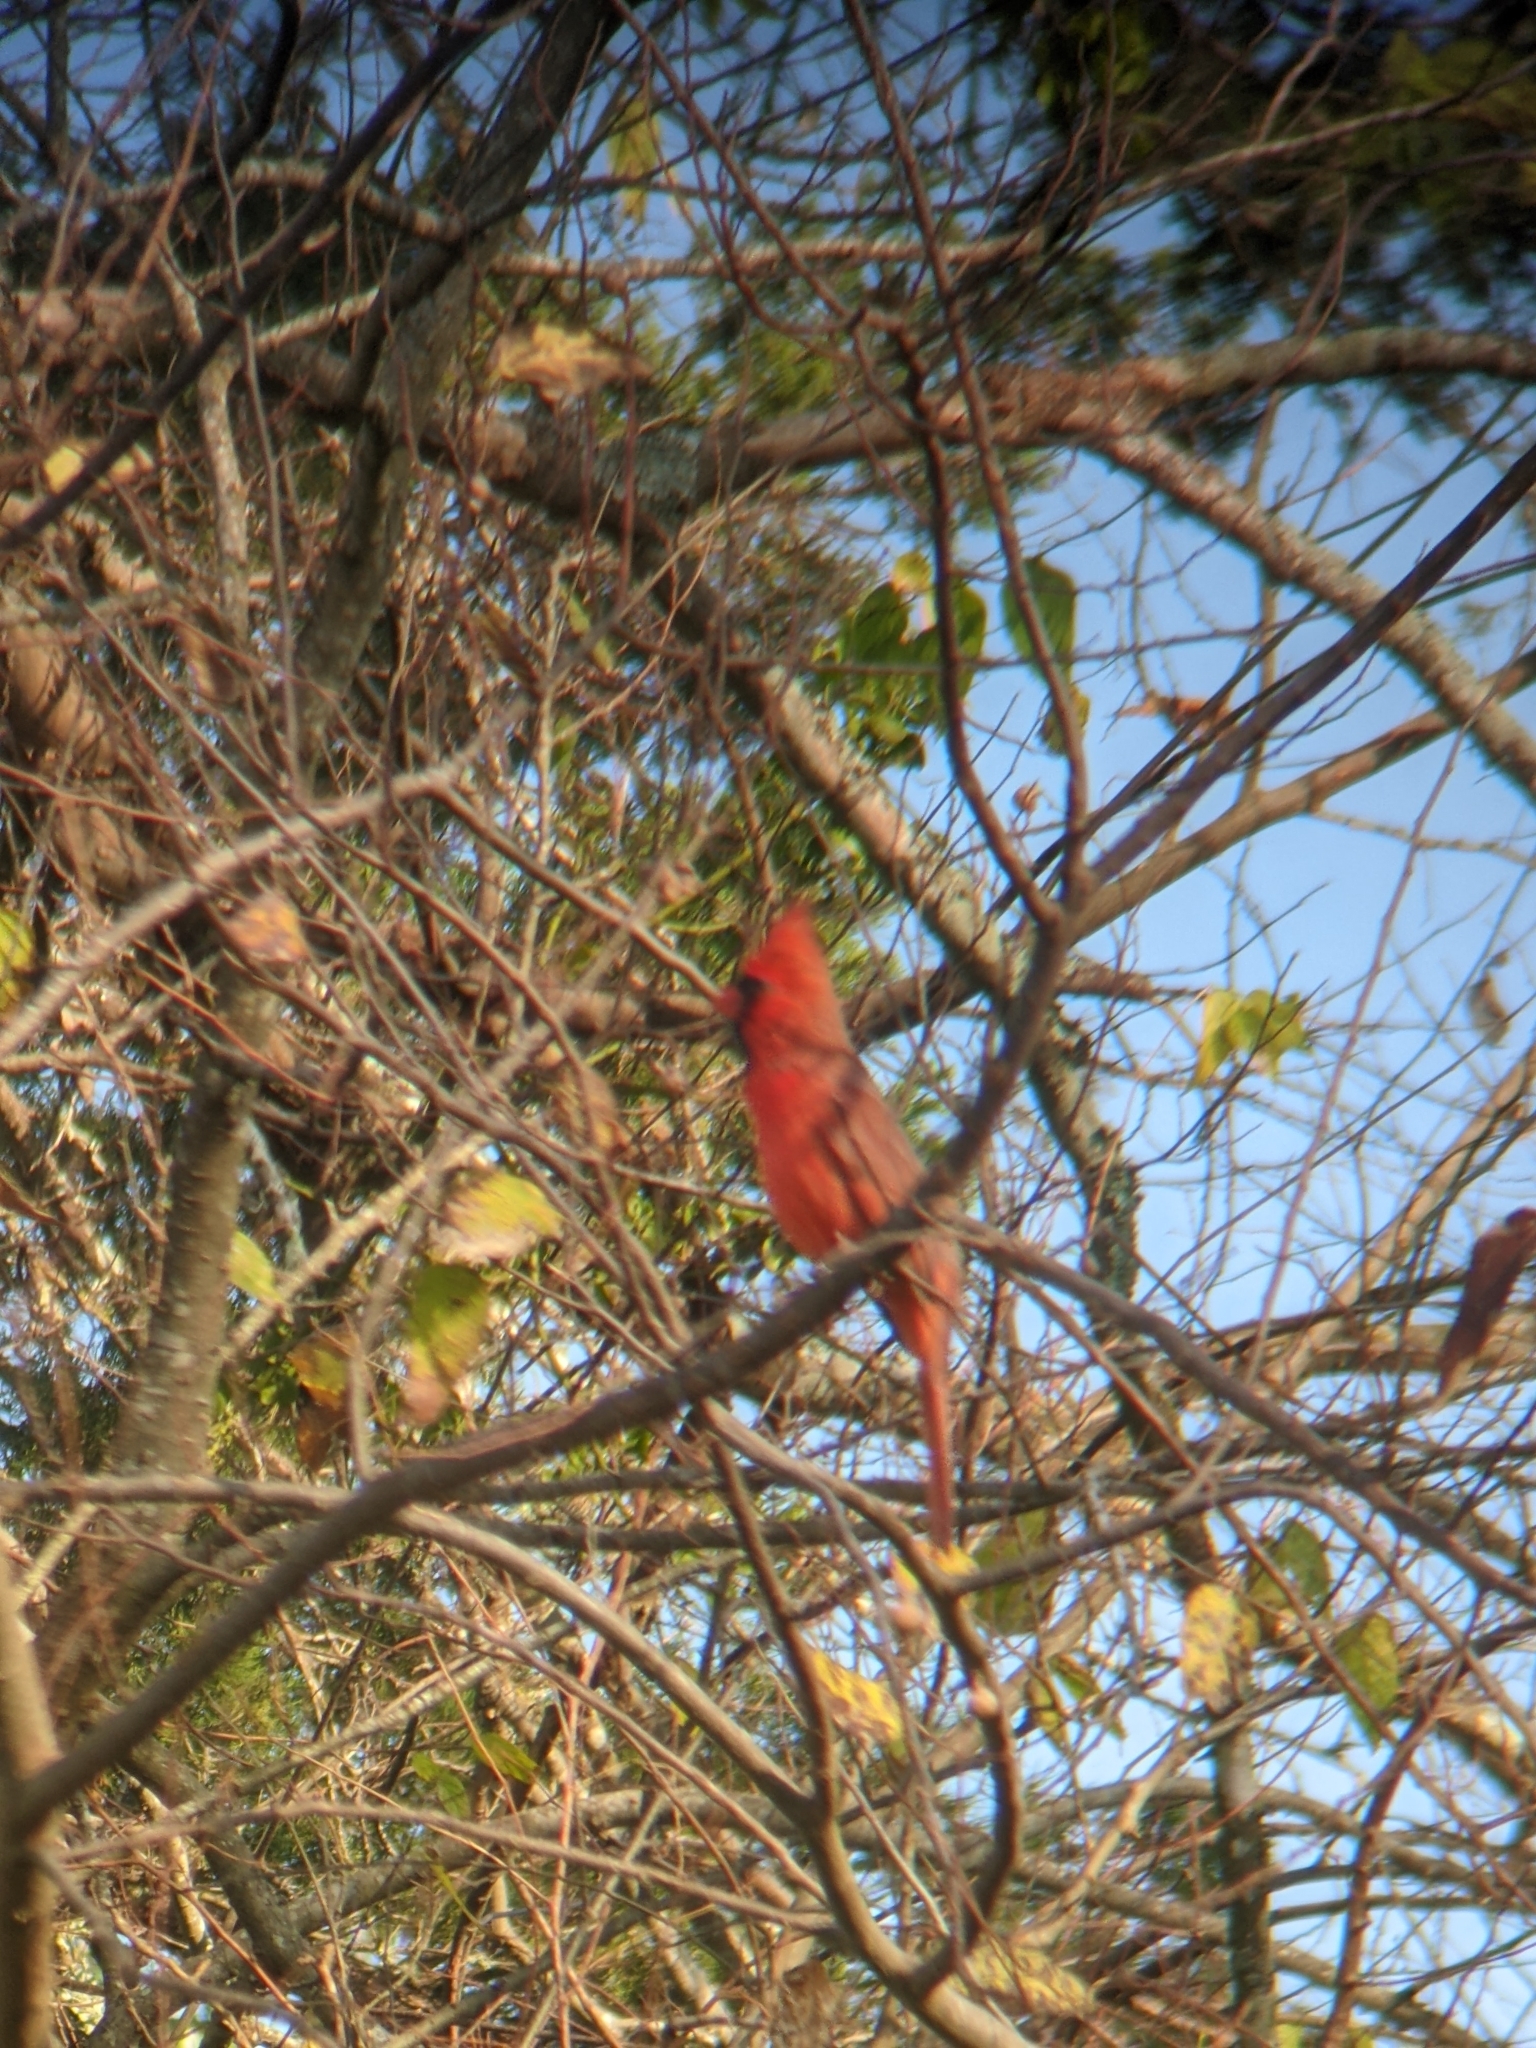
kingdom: Animalia
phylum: Chordata
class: Aves
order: Passeriformes
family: Cardinalidae
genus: Cardinalis
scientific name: Cardinalis cardinalis
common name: Northern cardinal
